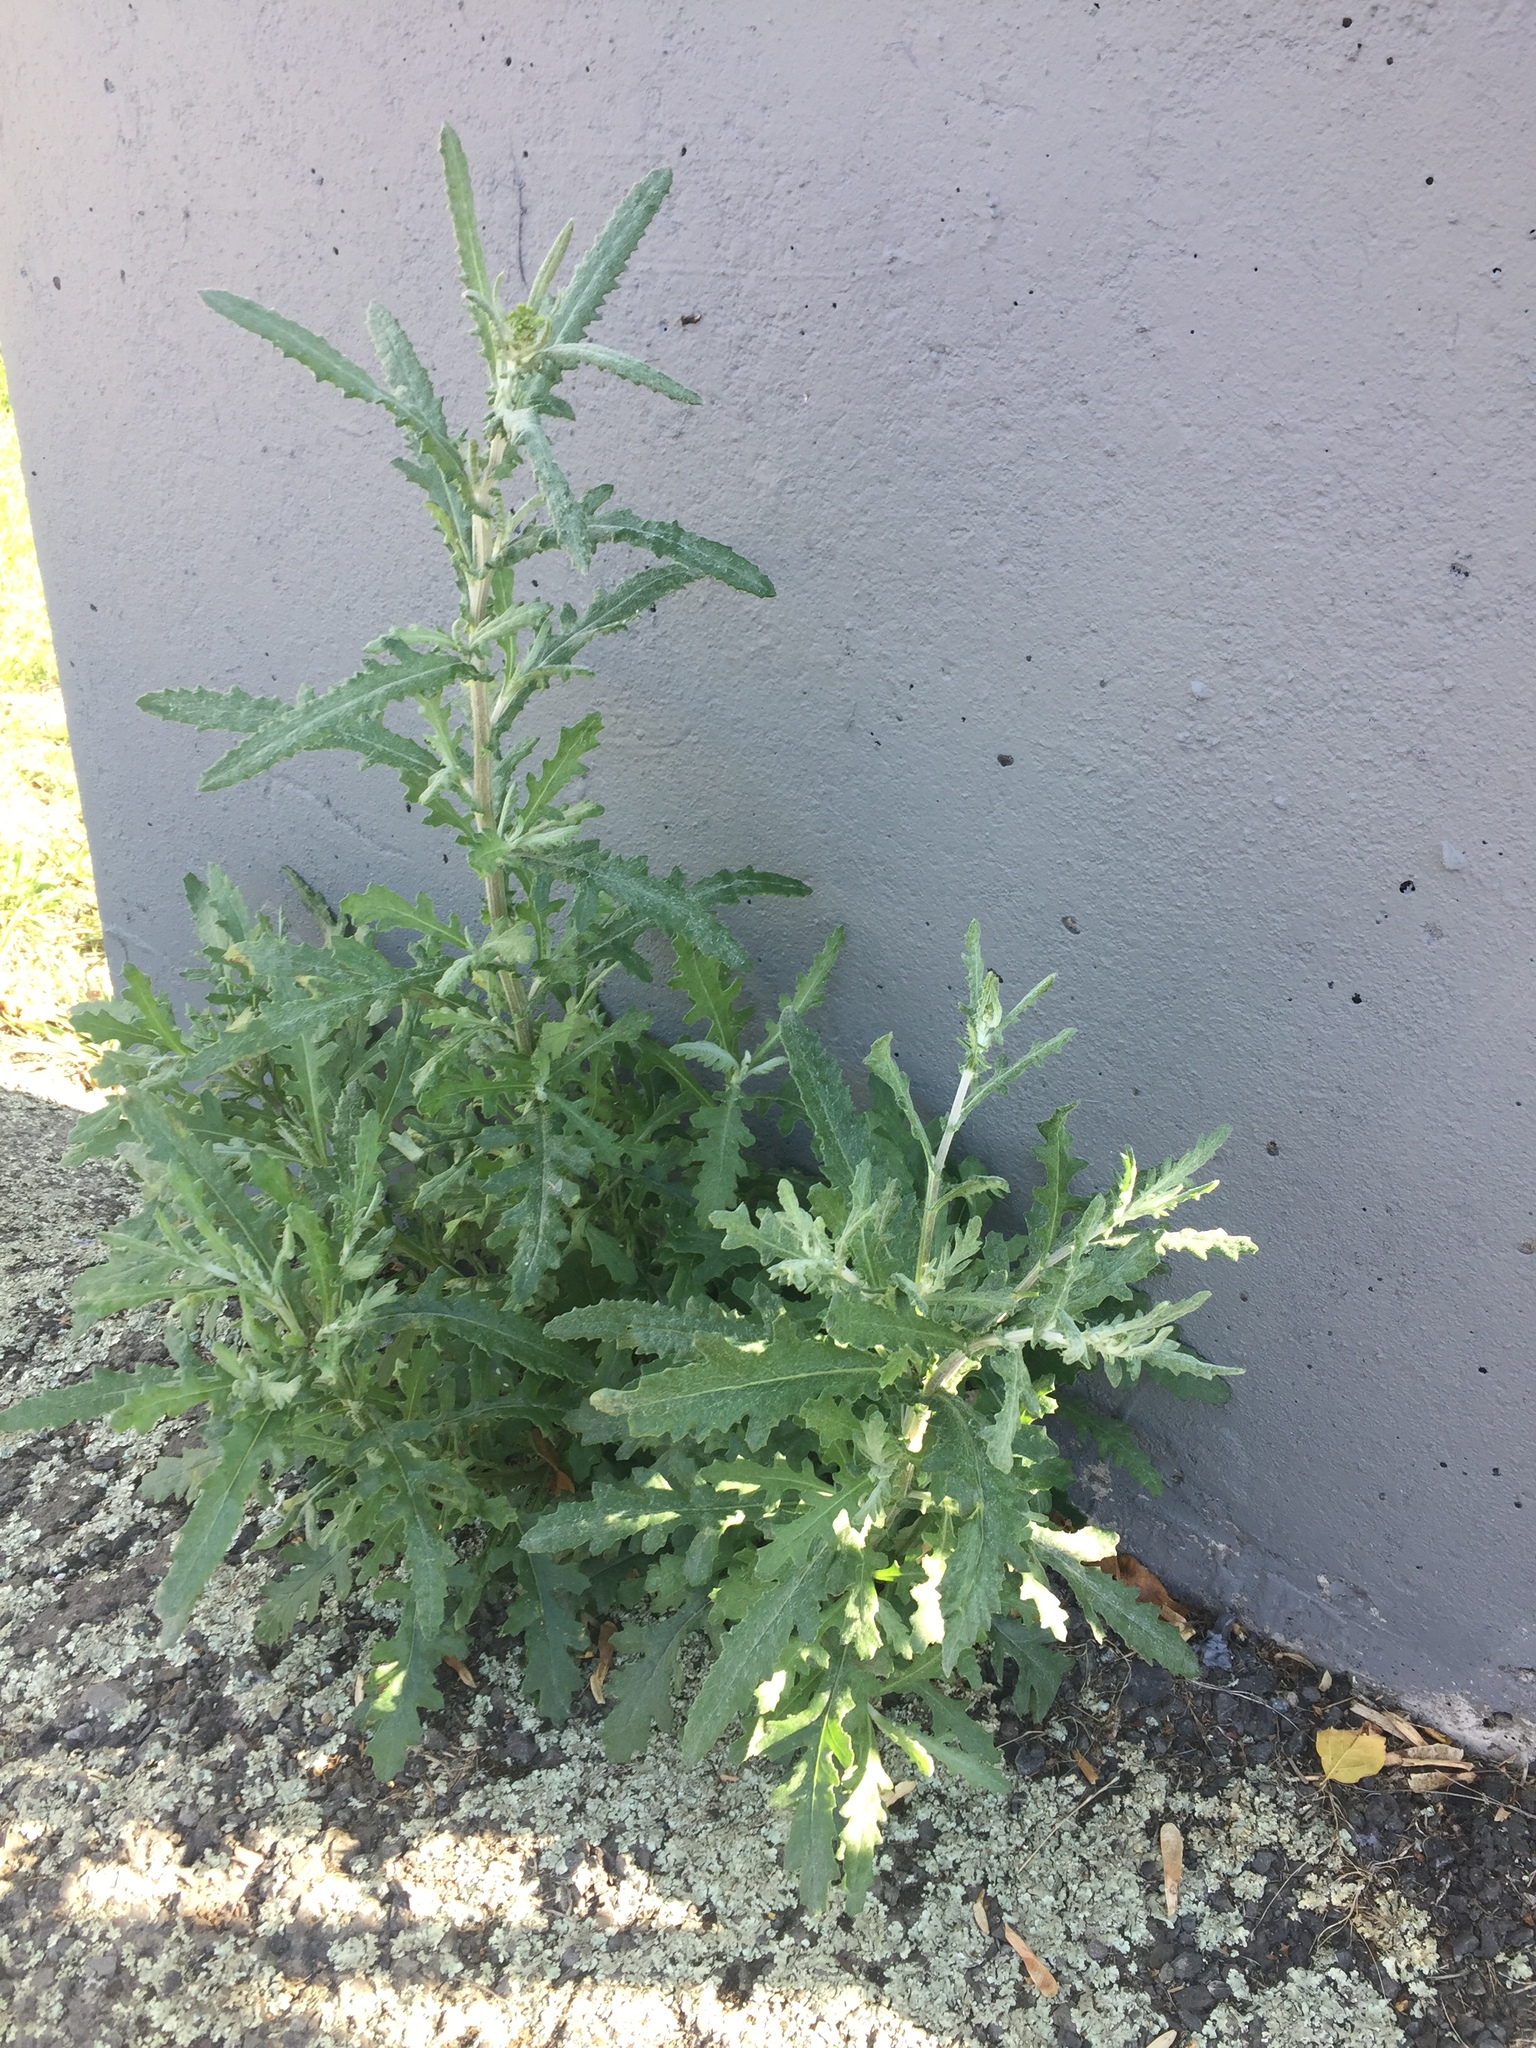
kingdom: Plantae
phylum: Tracheophyta
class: Magnoliopsida
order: Asterales
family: Asteraceae
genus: Senecio
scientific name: Senecio glomeratus
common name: Cutleaf burnweed
